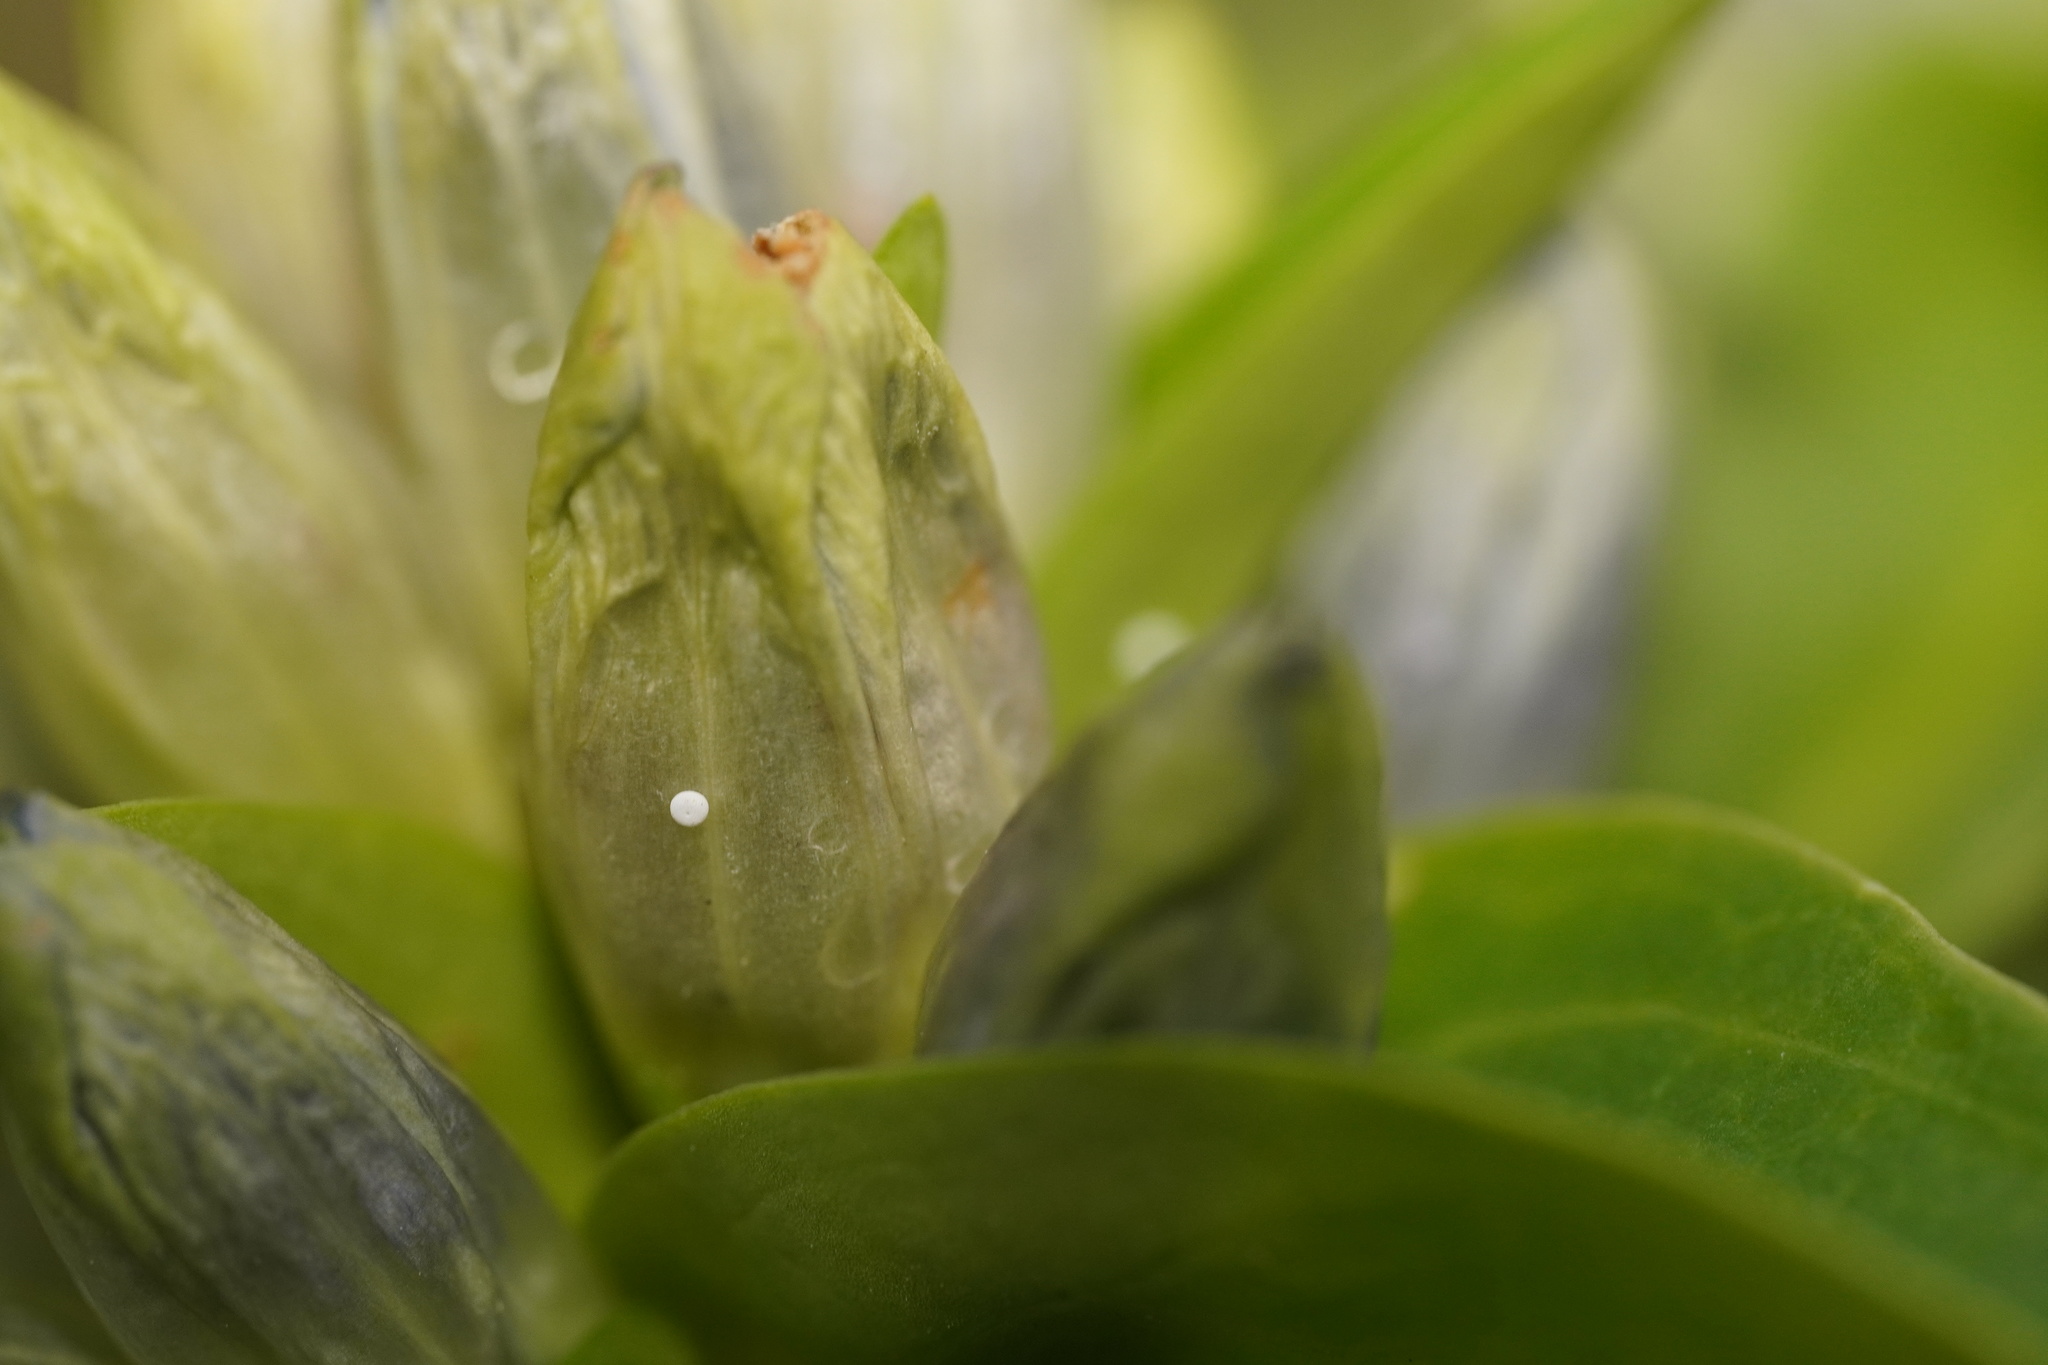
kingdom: Animalia
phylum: Arthropoda
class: Insecta
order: Lepidoptera
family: Lycaenidae
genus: Maculinea
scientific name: Maculinea alcon
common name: Alcon blue
